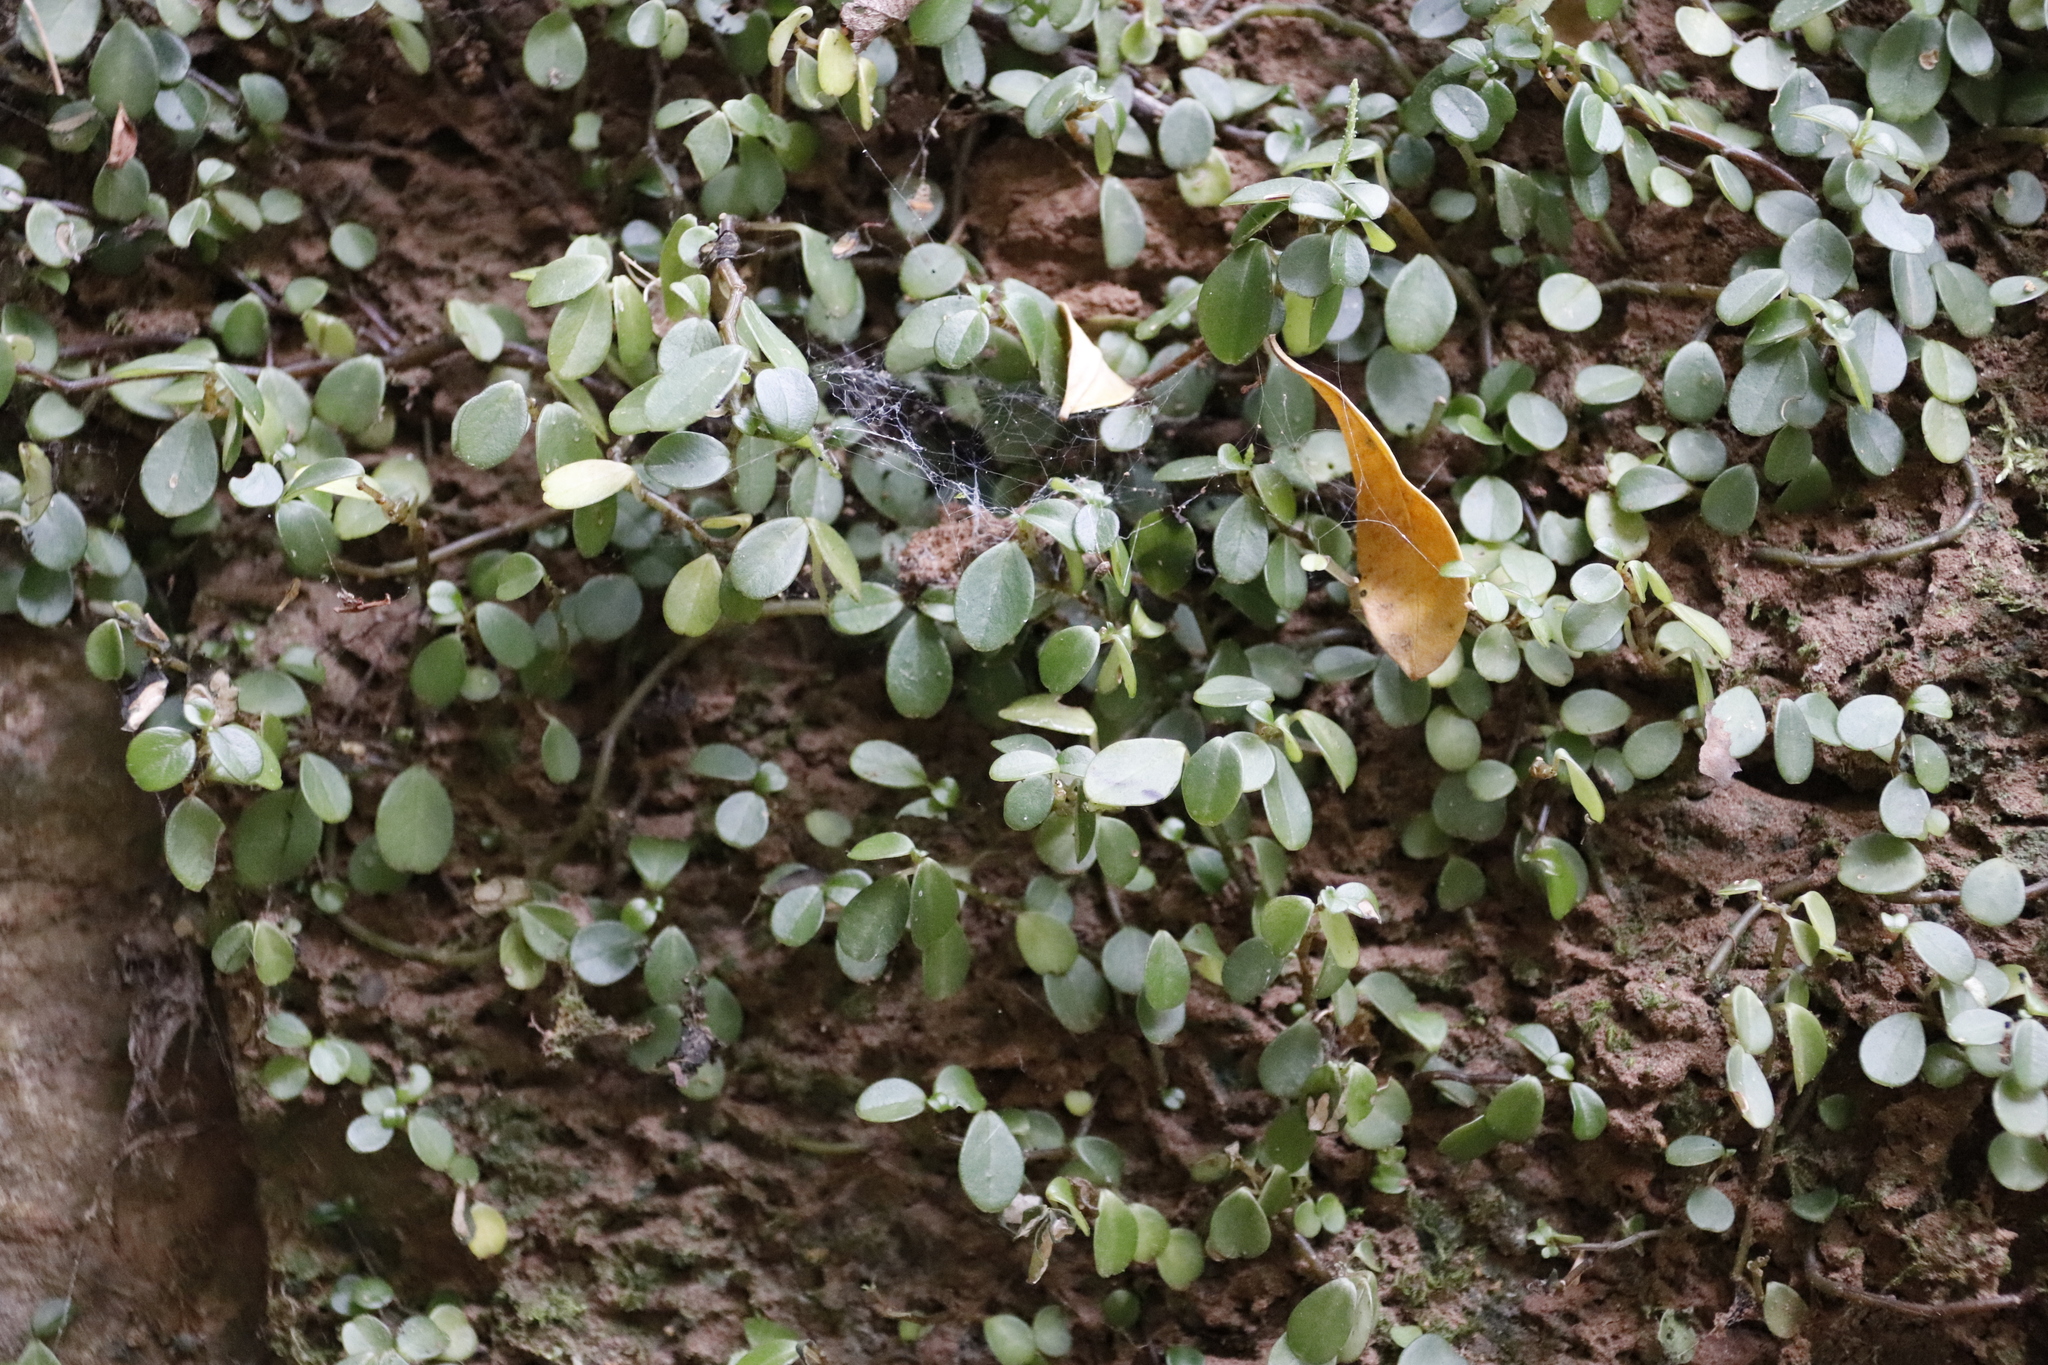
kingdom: Plantae
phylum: Tracheophyta
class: Magnoliopsida
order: Piperales
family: Piperaceae
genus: Peperomia
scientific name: Peperomia retusa
